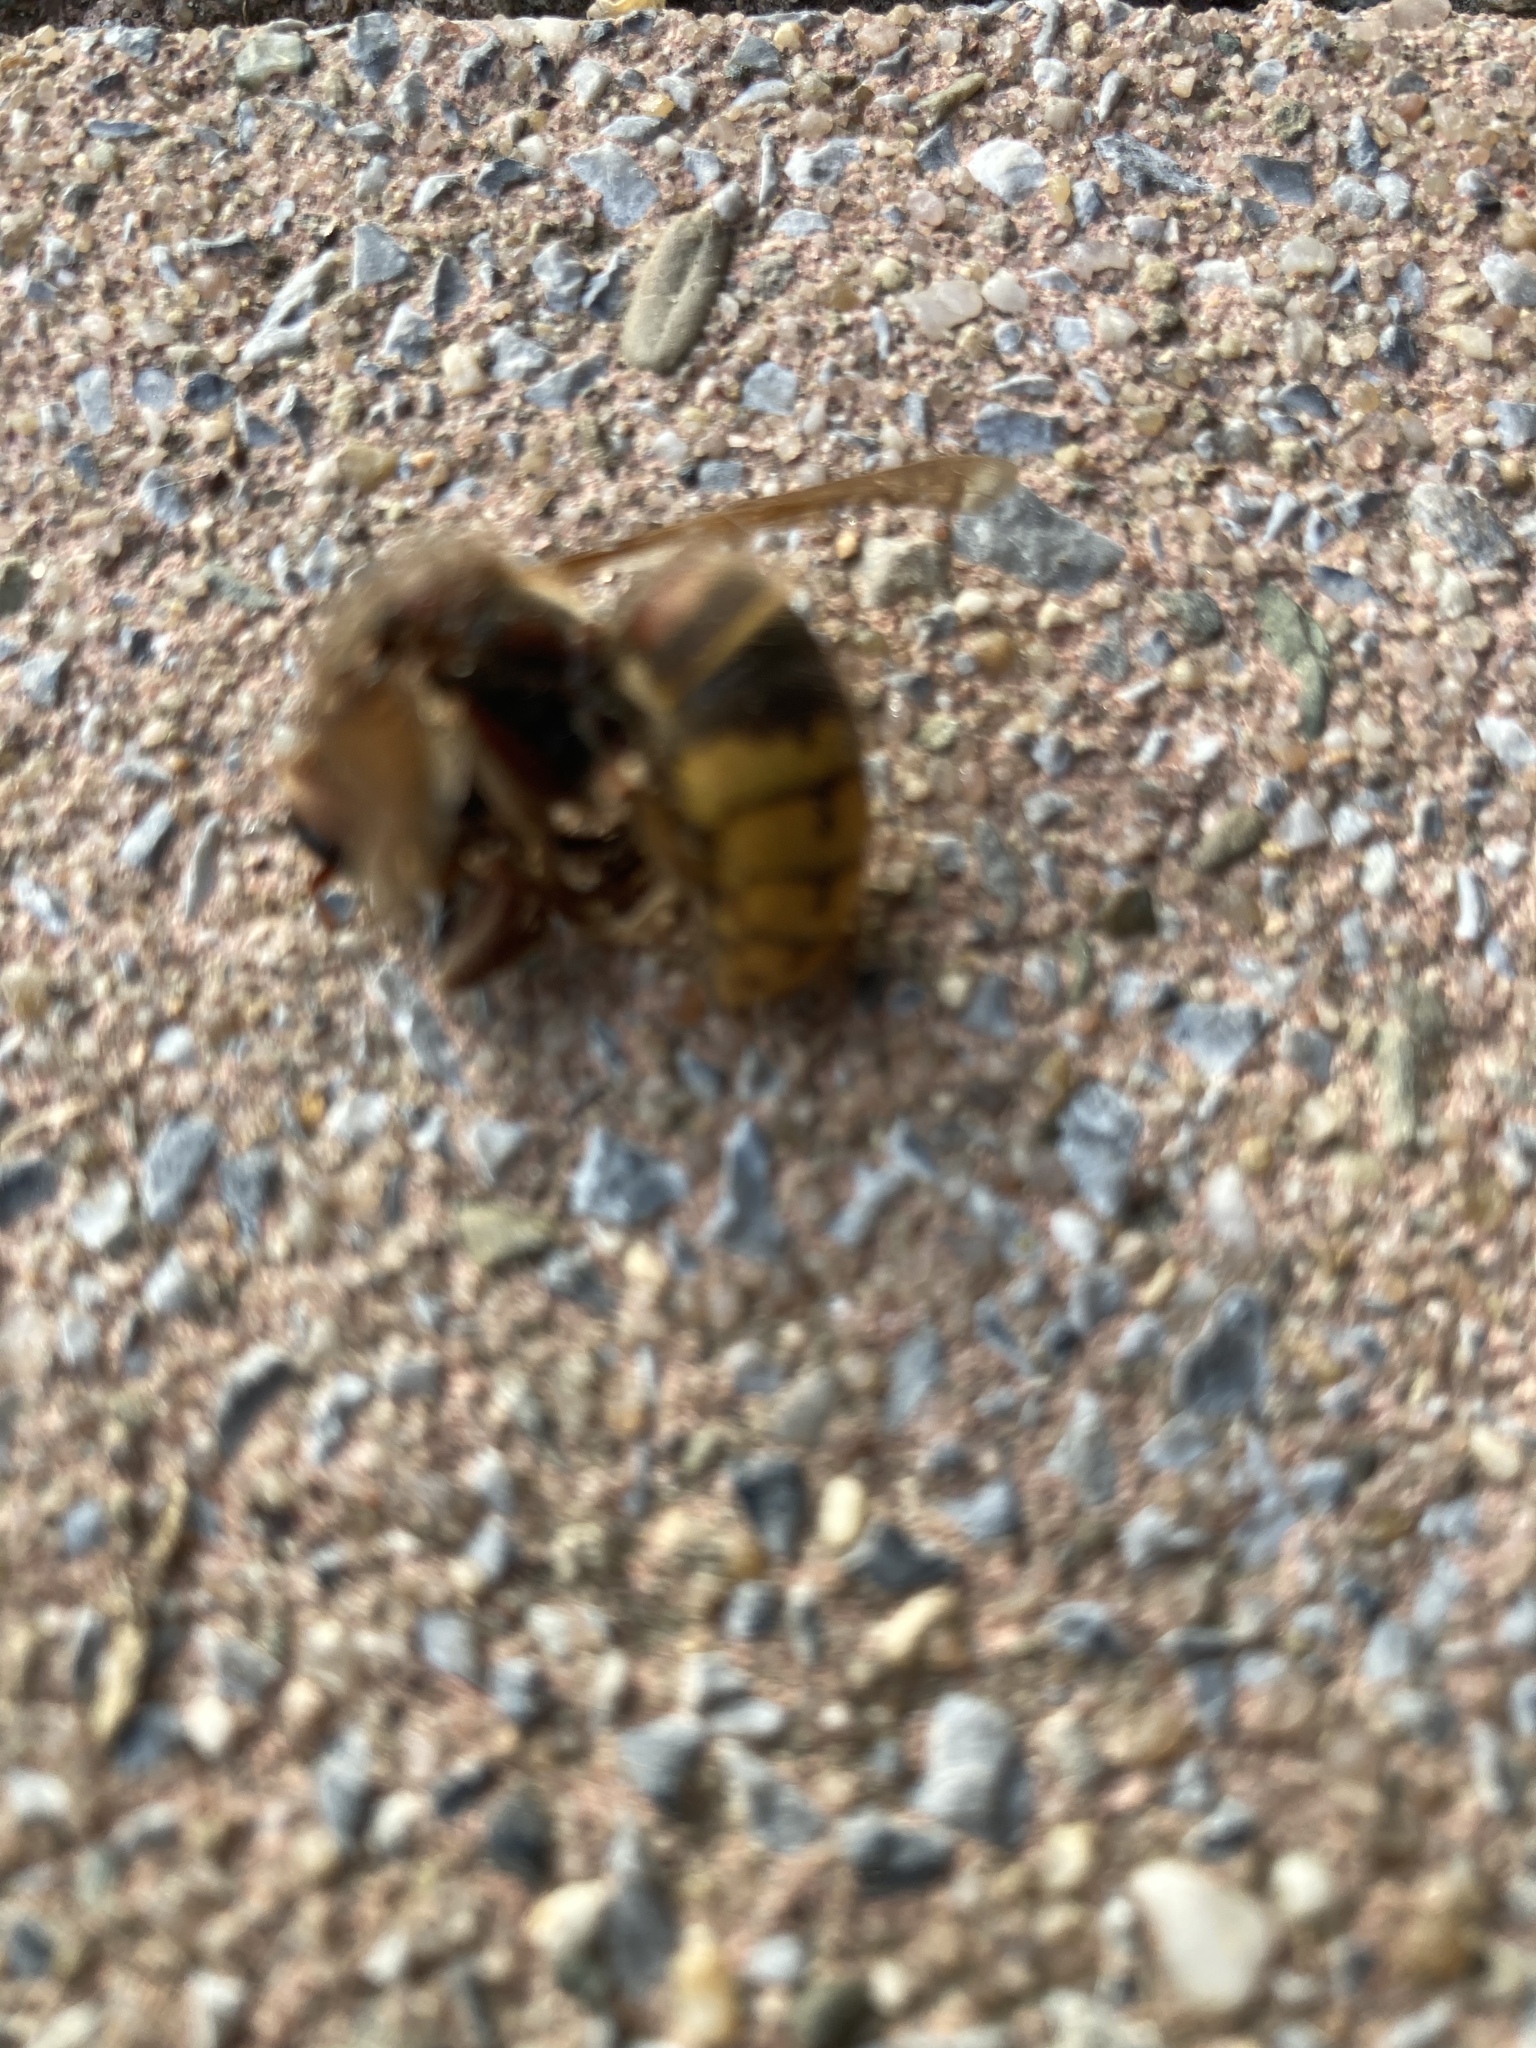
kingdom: Animalia
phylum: Arthropoda
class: Insecta
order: Hymenoptera
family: Vespidae
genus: Vespa
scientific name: Vespa crabro
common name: Hornet
